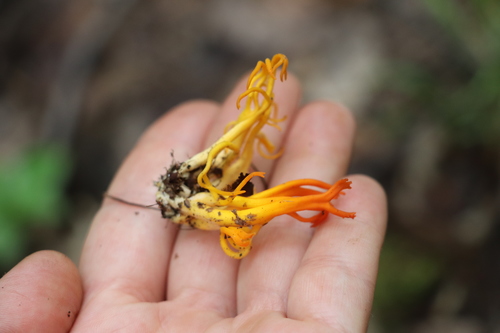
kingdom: Fungi
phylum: Basidiomycota
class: Dacrymycetes
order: Dacrymycetales
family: Dacrymycetaceae
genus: Calocera
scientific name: Calocera viscosa
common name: Yellow stagshorn
